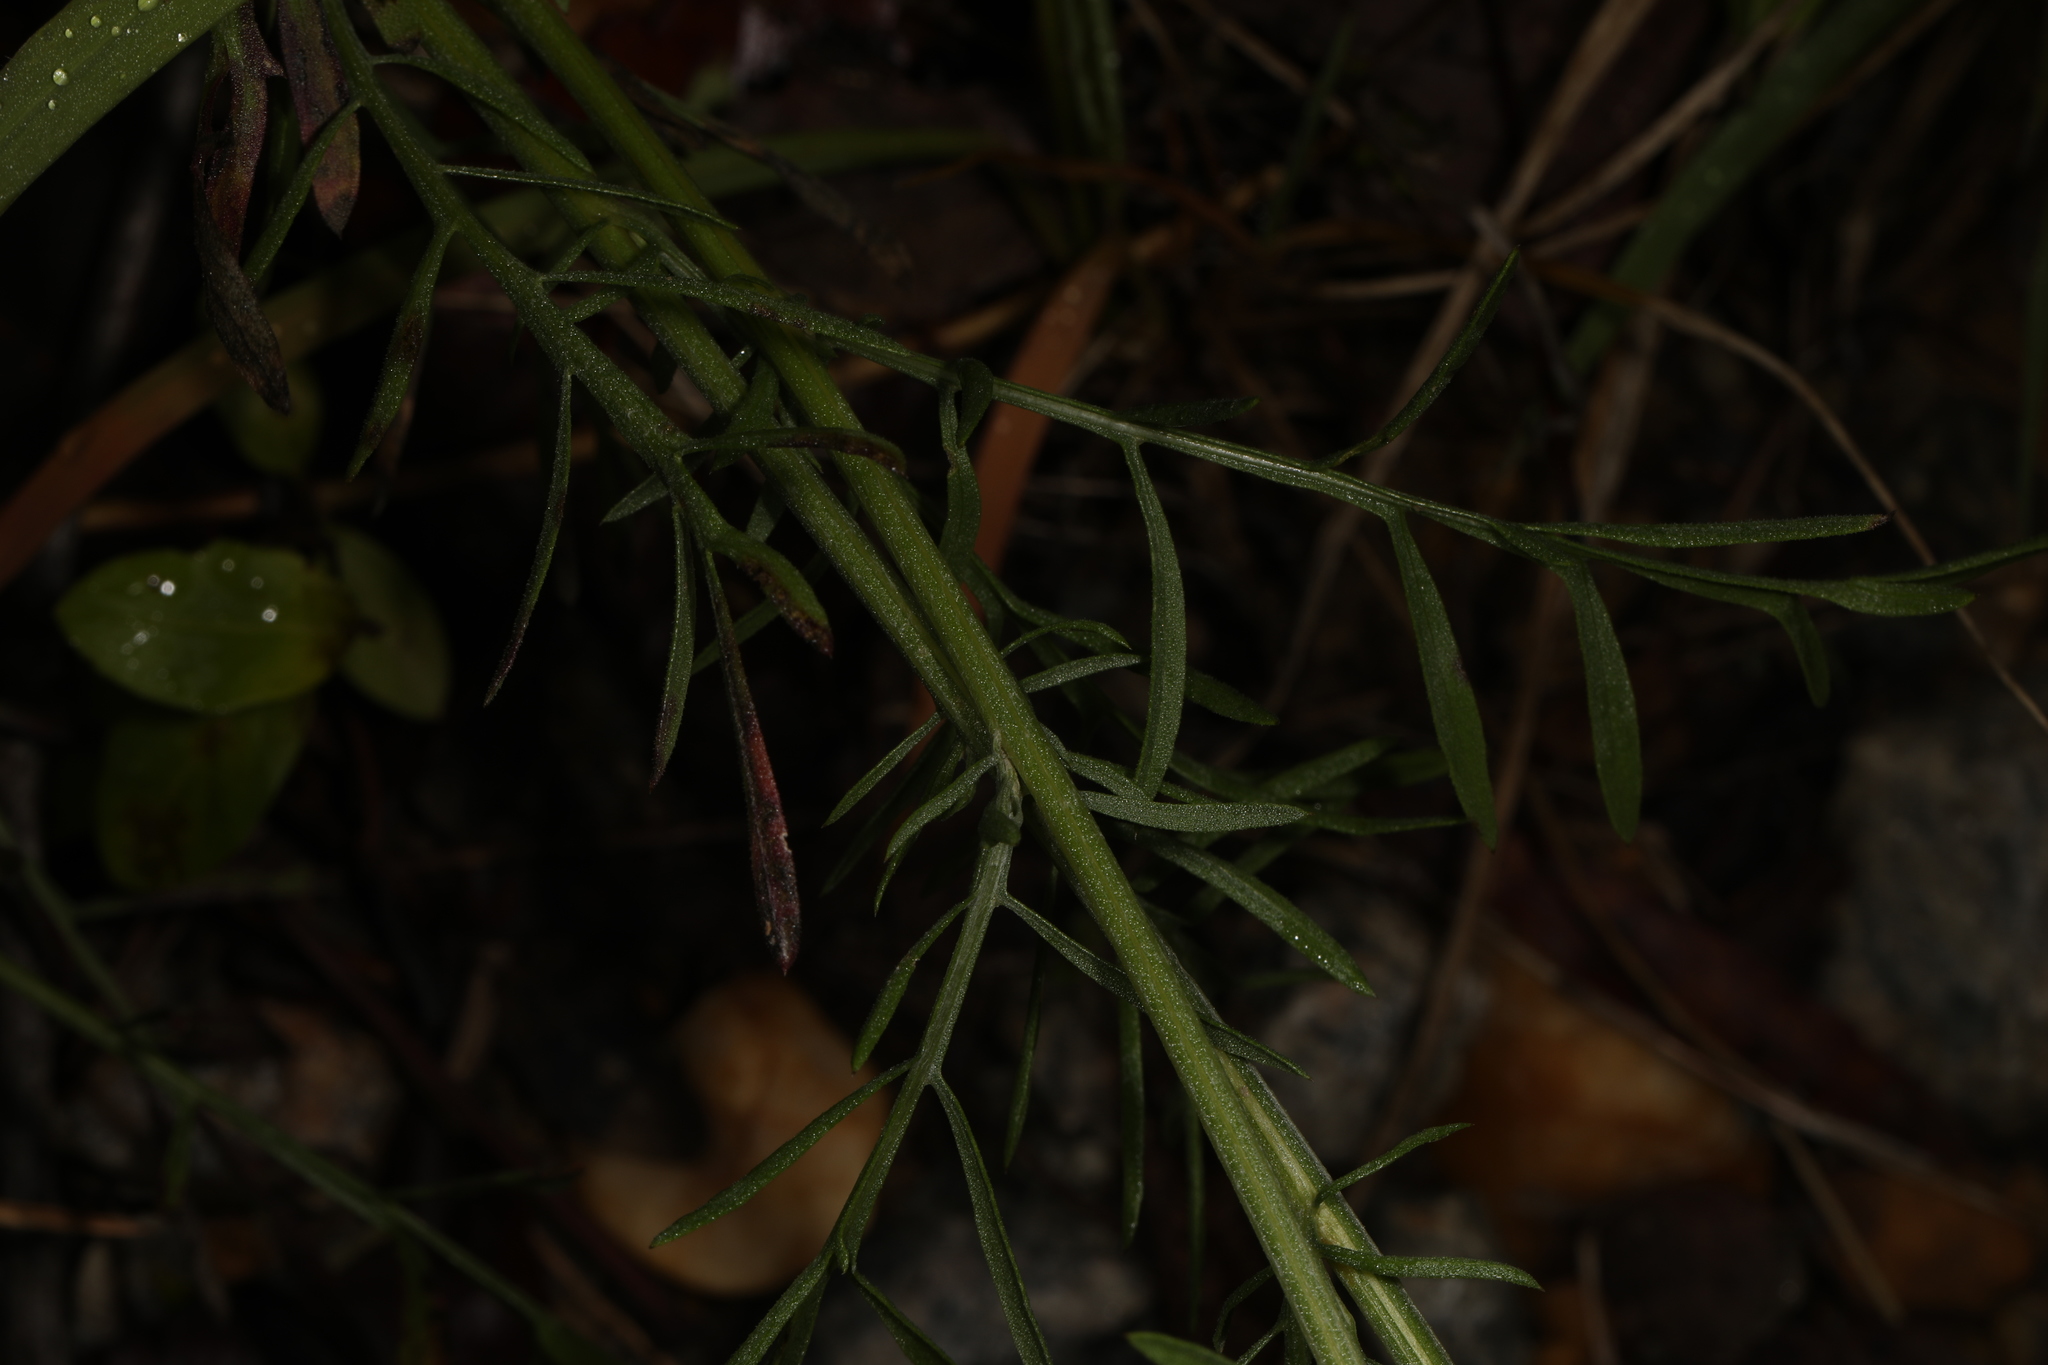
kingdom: Plantae
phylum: Tracheophyta
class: Magnoliopsida
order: Asterales
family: Asteraceae
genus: Centaurea
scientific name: Centaurea stoebe
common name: Spotted knapweed
